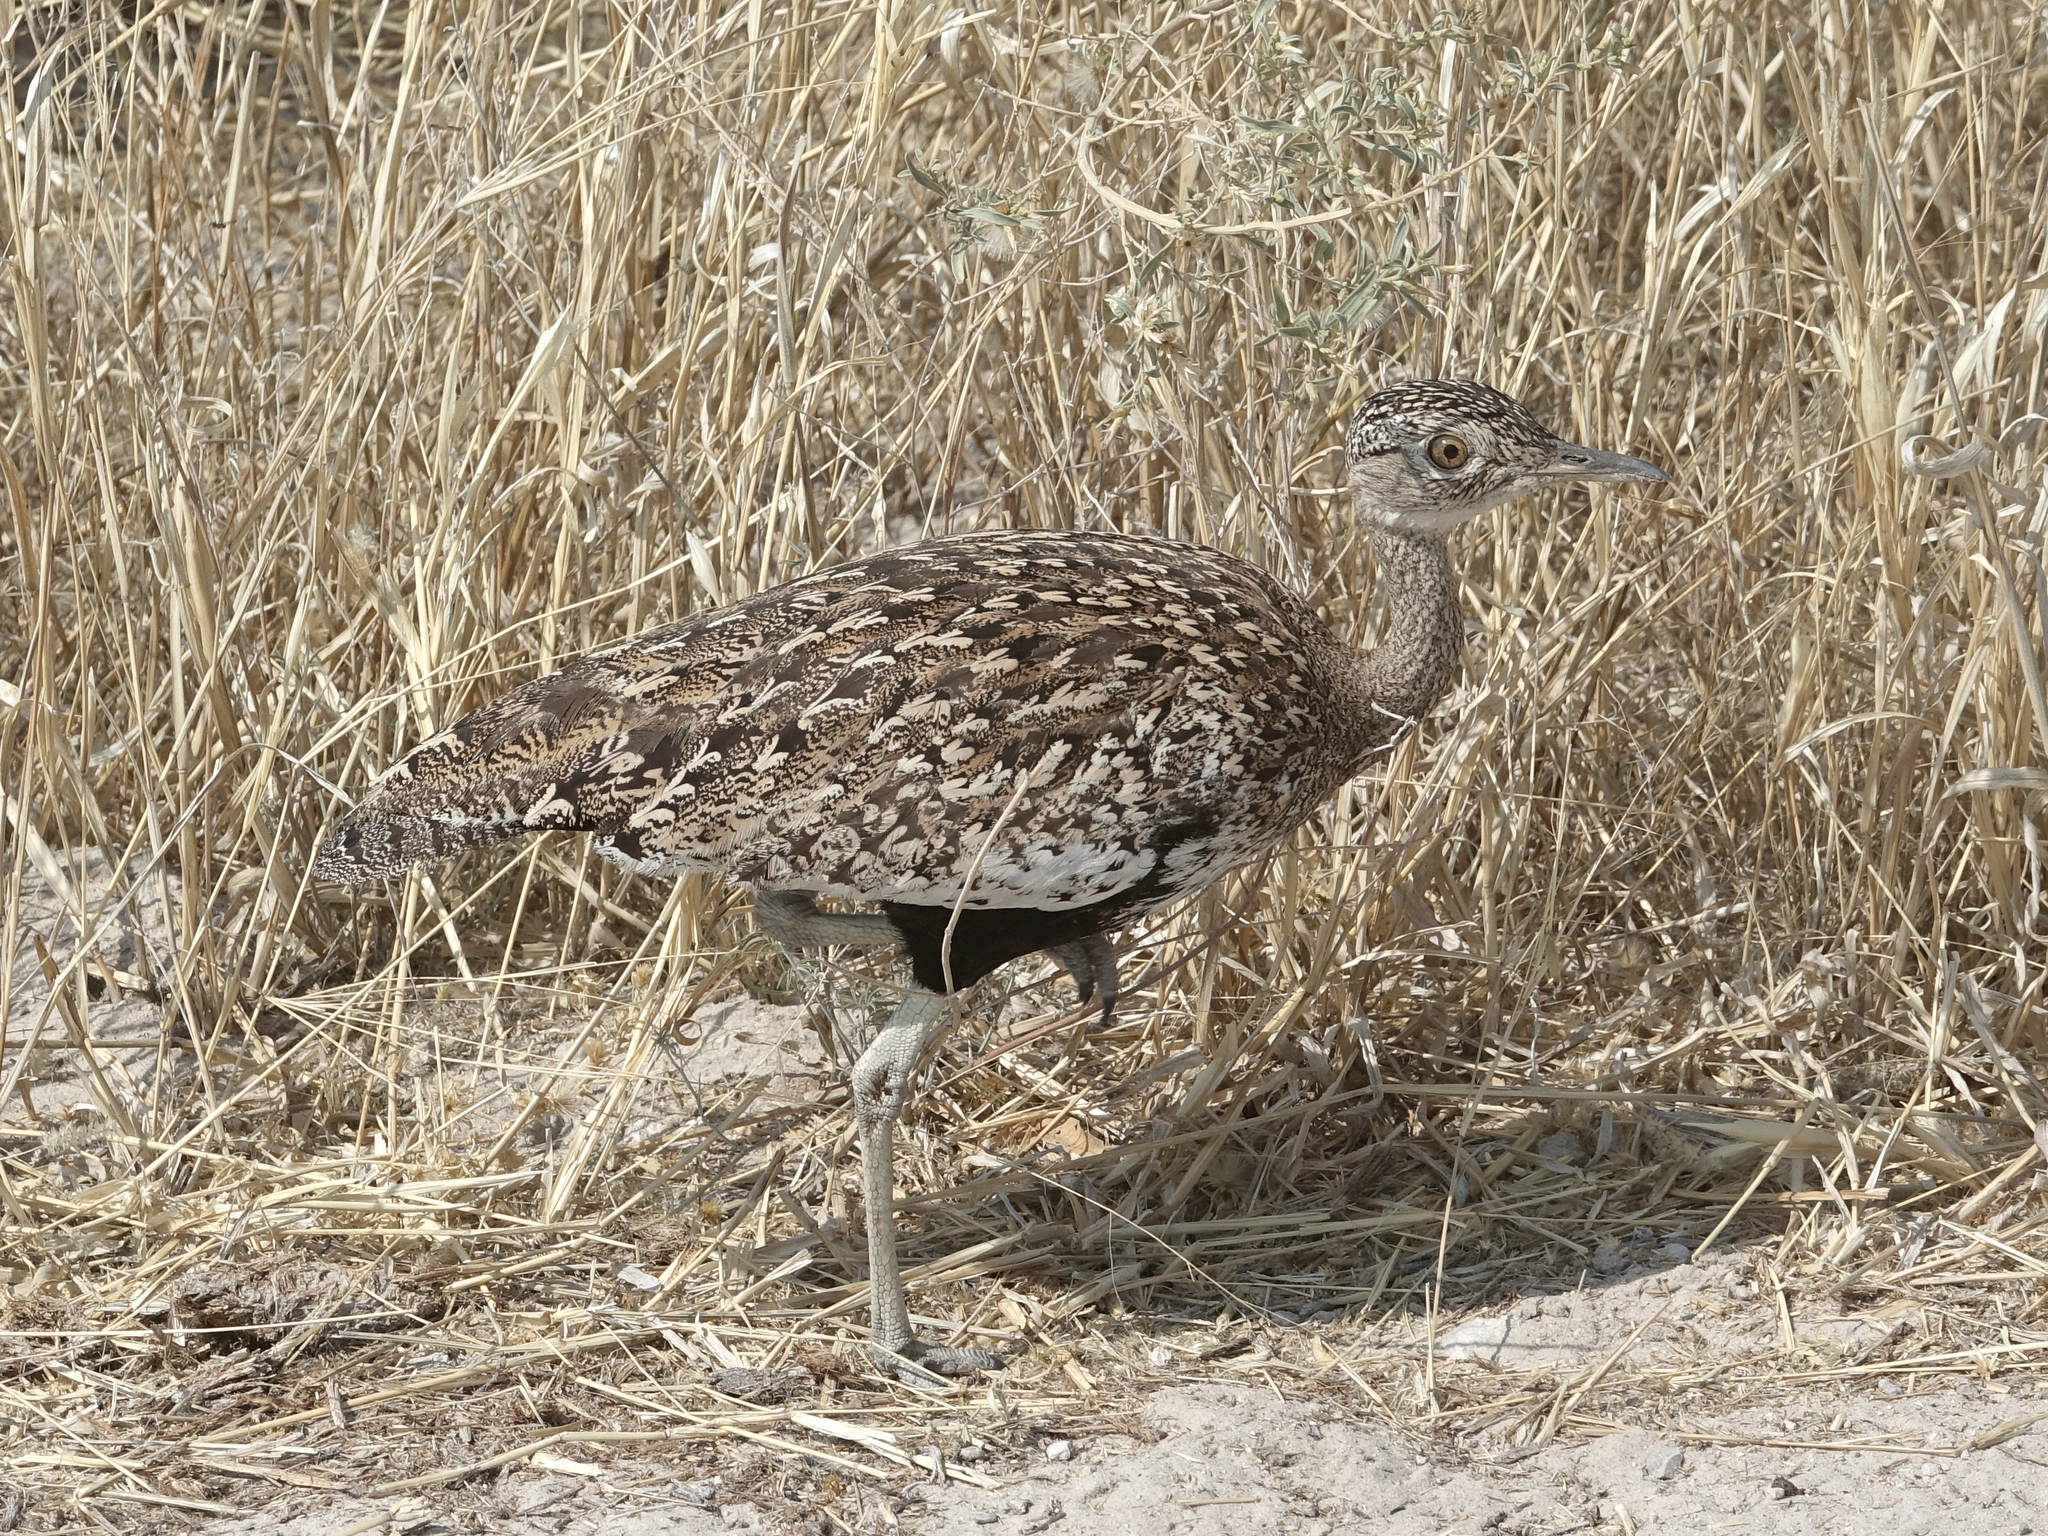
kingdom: Animalia
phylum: Chordata
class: Aves
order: Otidiformes
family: Otididae
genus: Lophotis
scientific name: Lophotis ruficrista
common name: Red-crested korhaan
